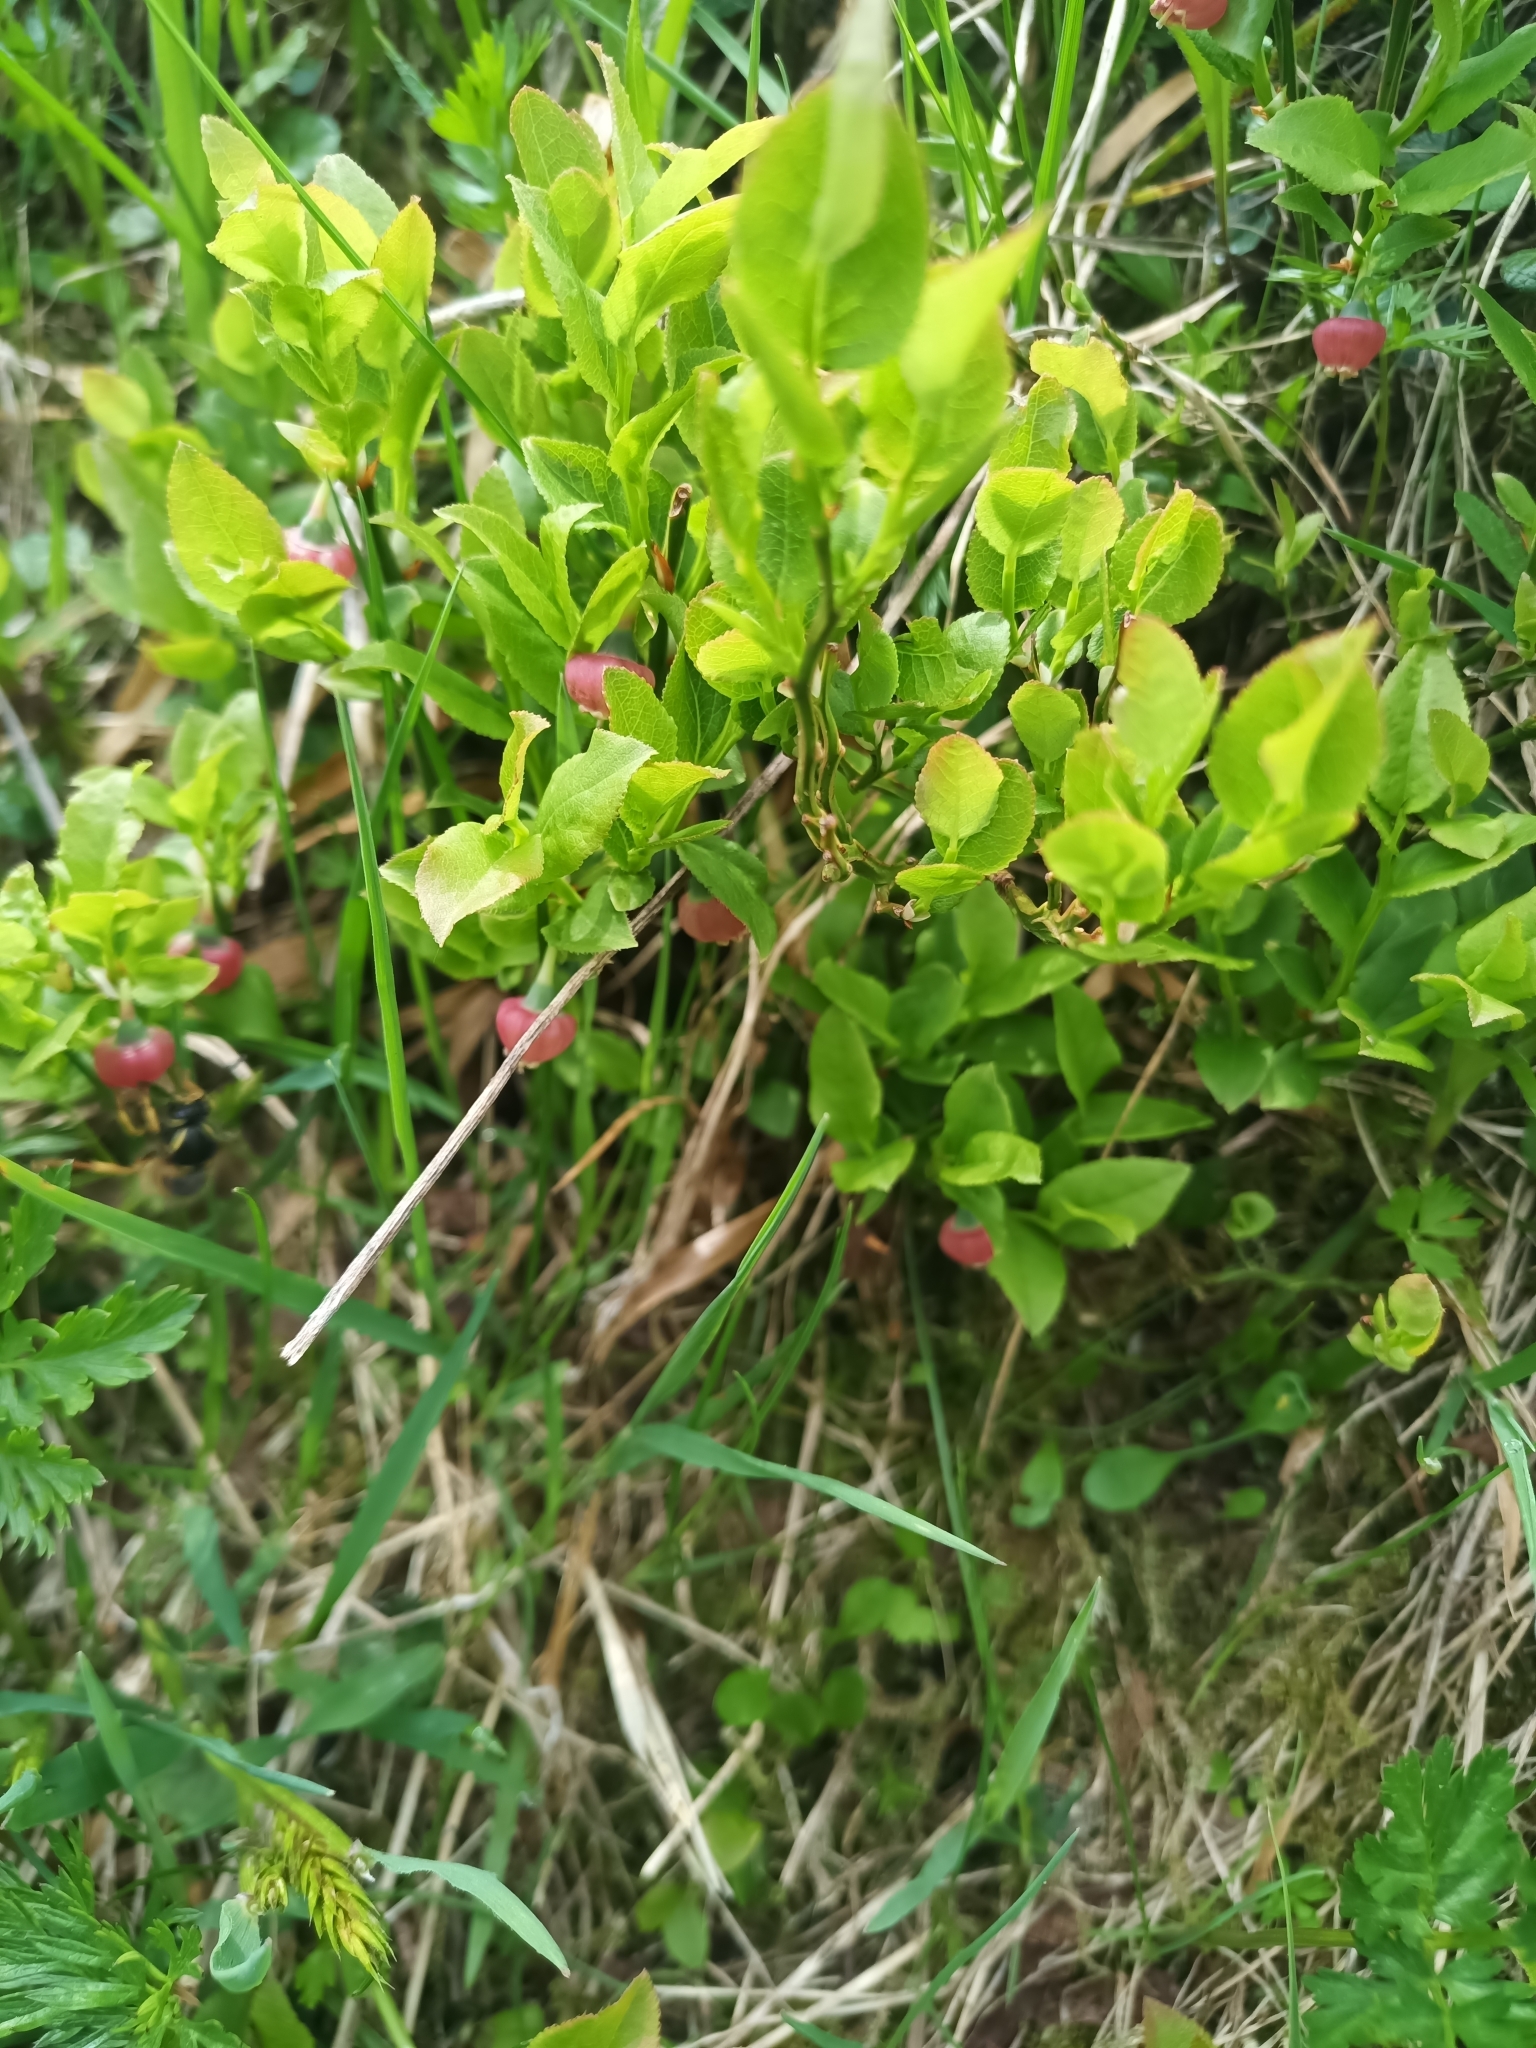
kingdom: Plantae
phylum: Tracheophyta
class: Magnoliopsida
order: Ericales
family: Ericaceae
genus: Vaccinium
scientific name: Vaccinium myrtillus
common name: Bilberry
